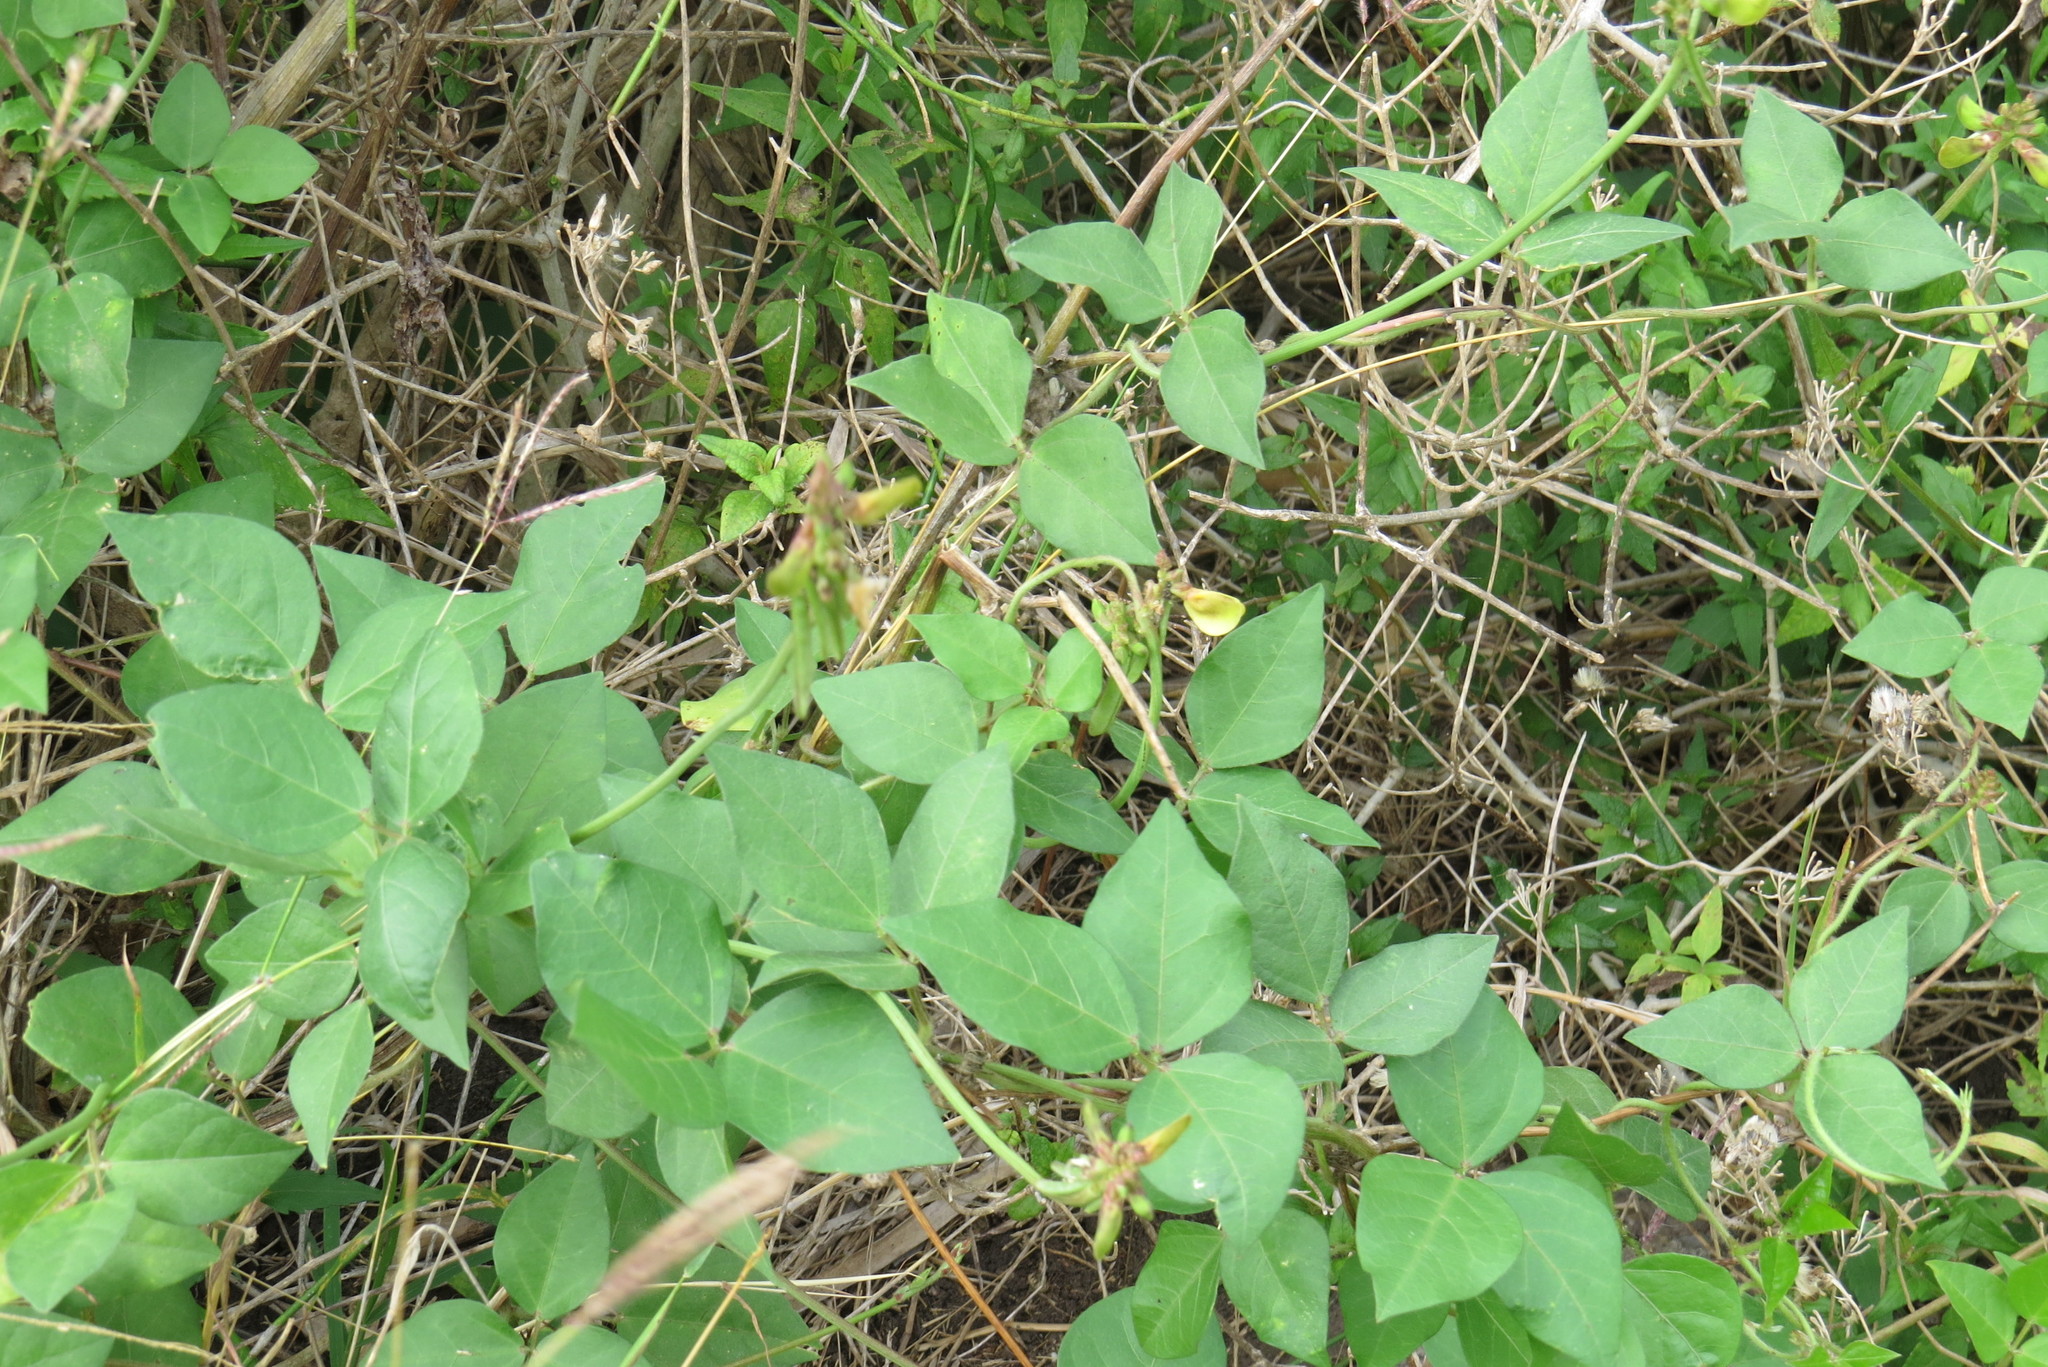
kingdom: Plantae
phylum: Tracheophyta
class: Magnoliopsida
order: Fabales
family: Fabaceae
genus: Rhynchosia
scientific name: Rhynchosia minima
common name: Least snoutbean
